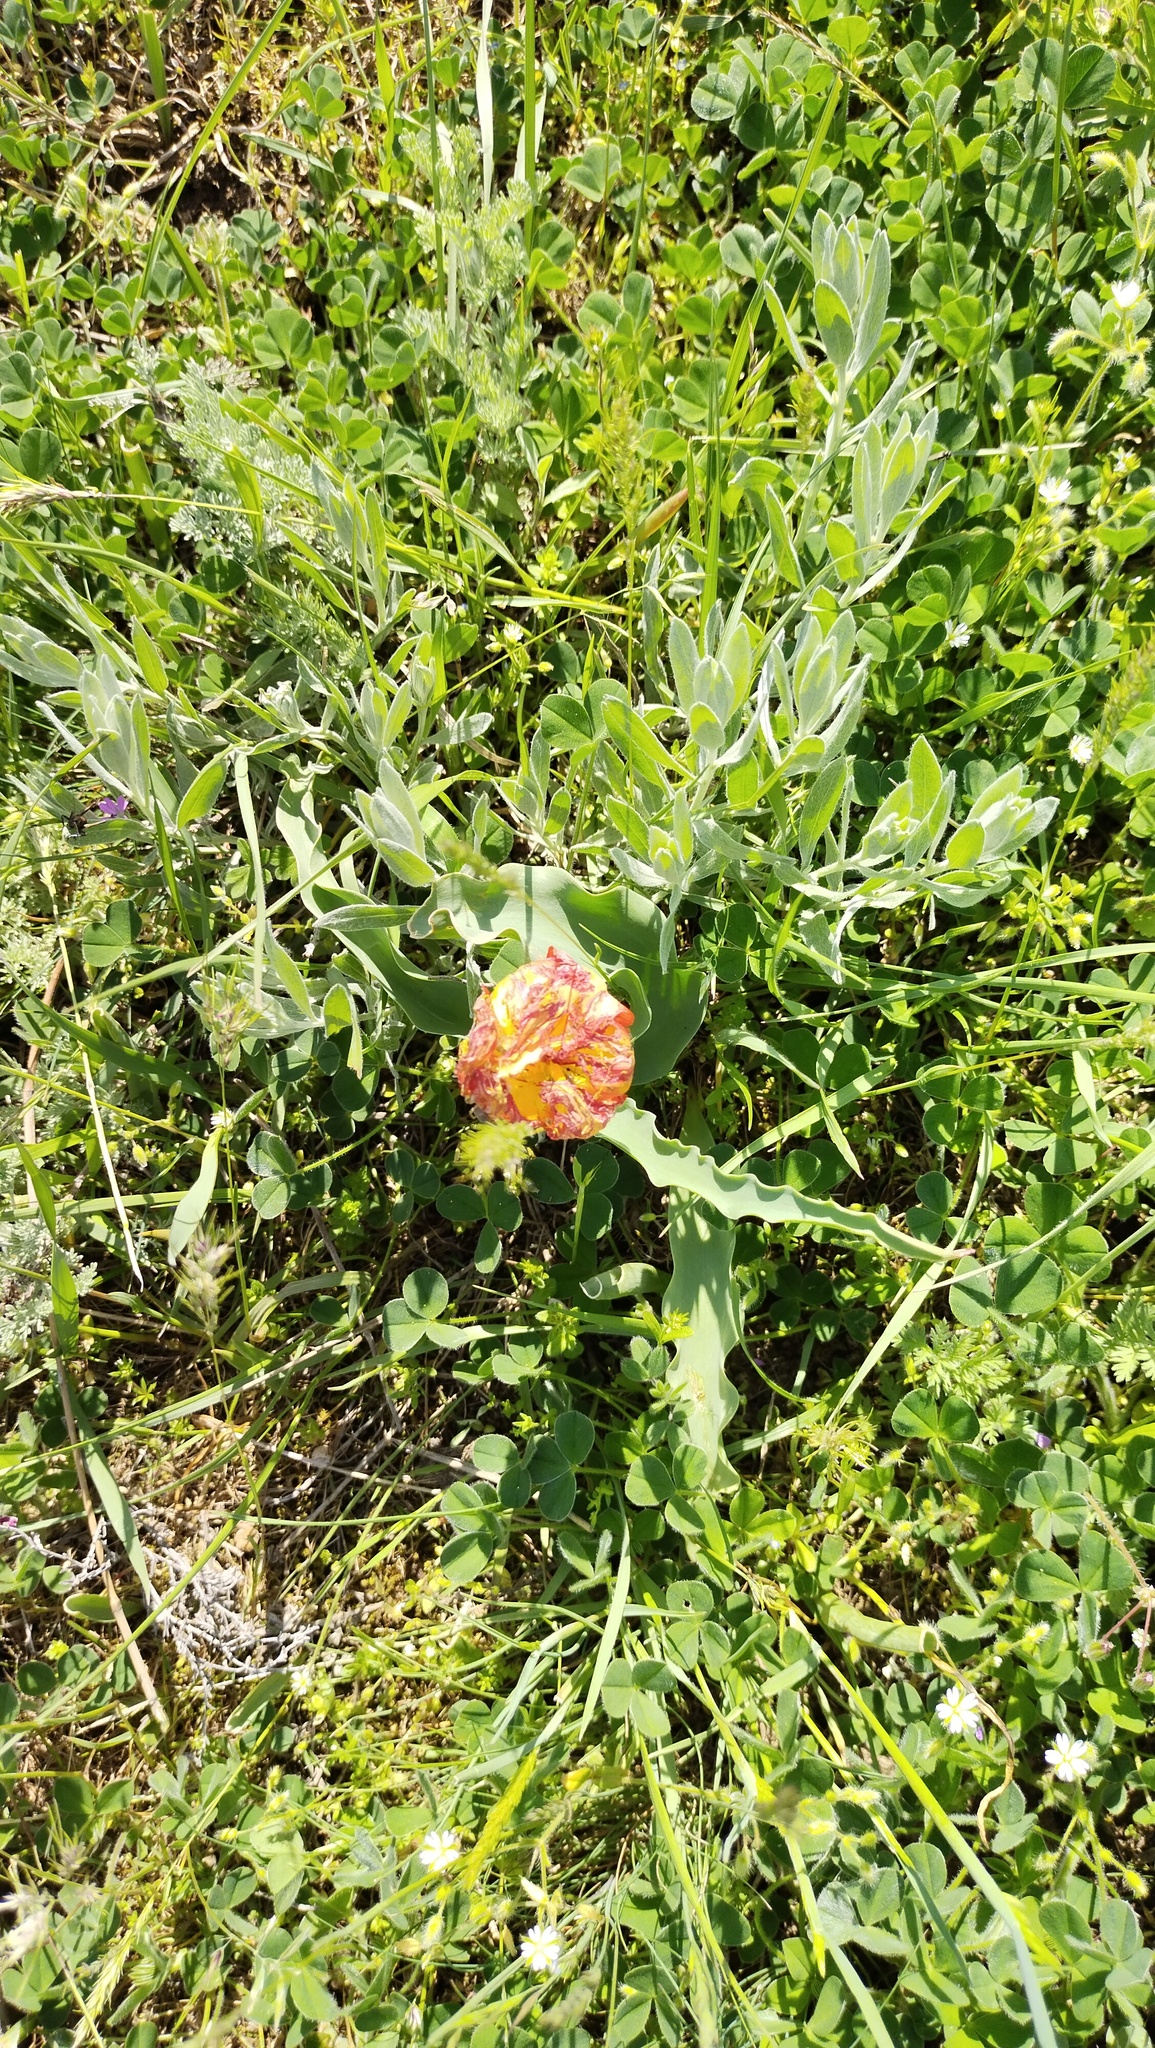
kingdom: Plantae
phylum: Tracheophyta
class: Liliopsida
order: Liliales
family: Liliaceae
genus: Tulipa
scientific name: Tulipa suaveolens
